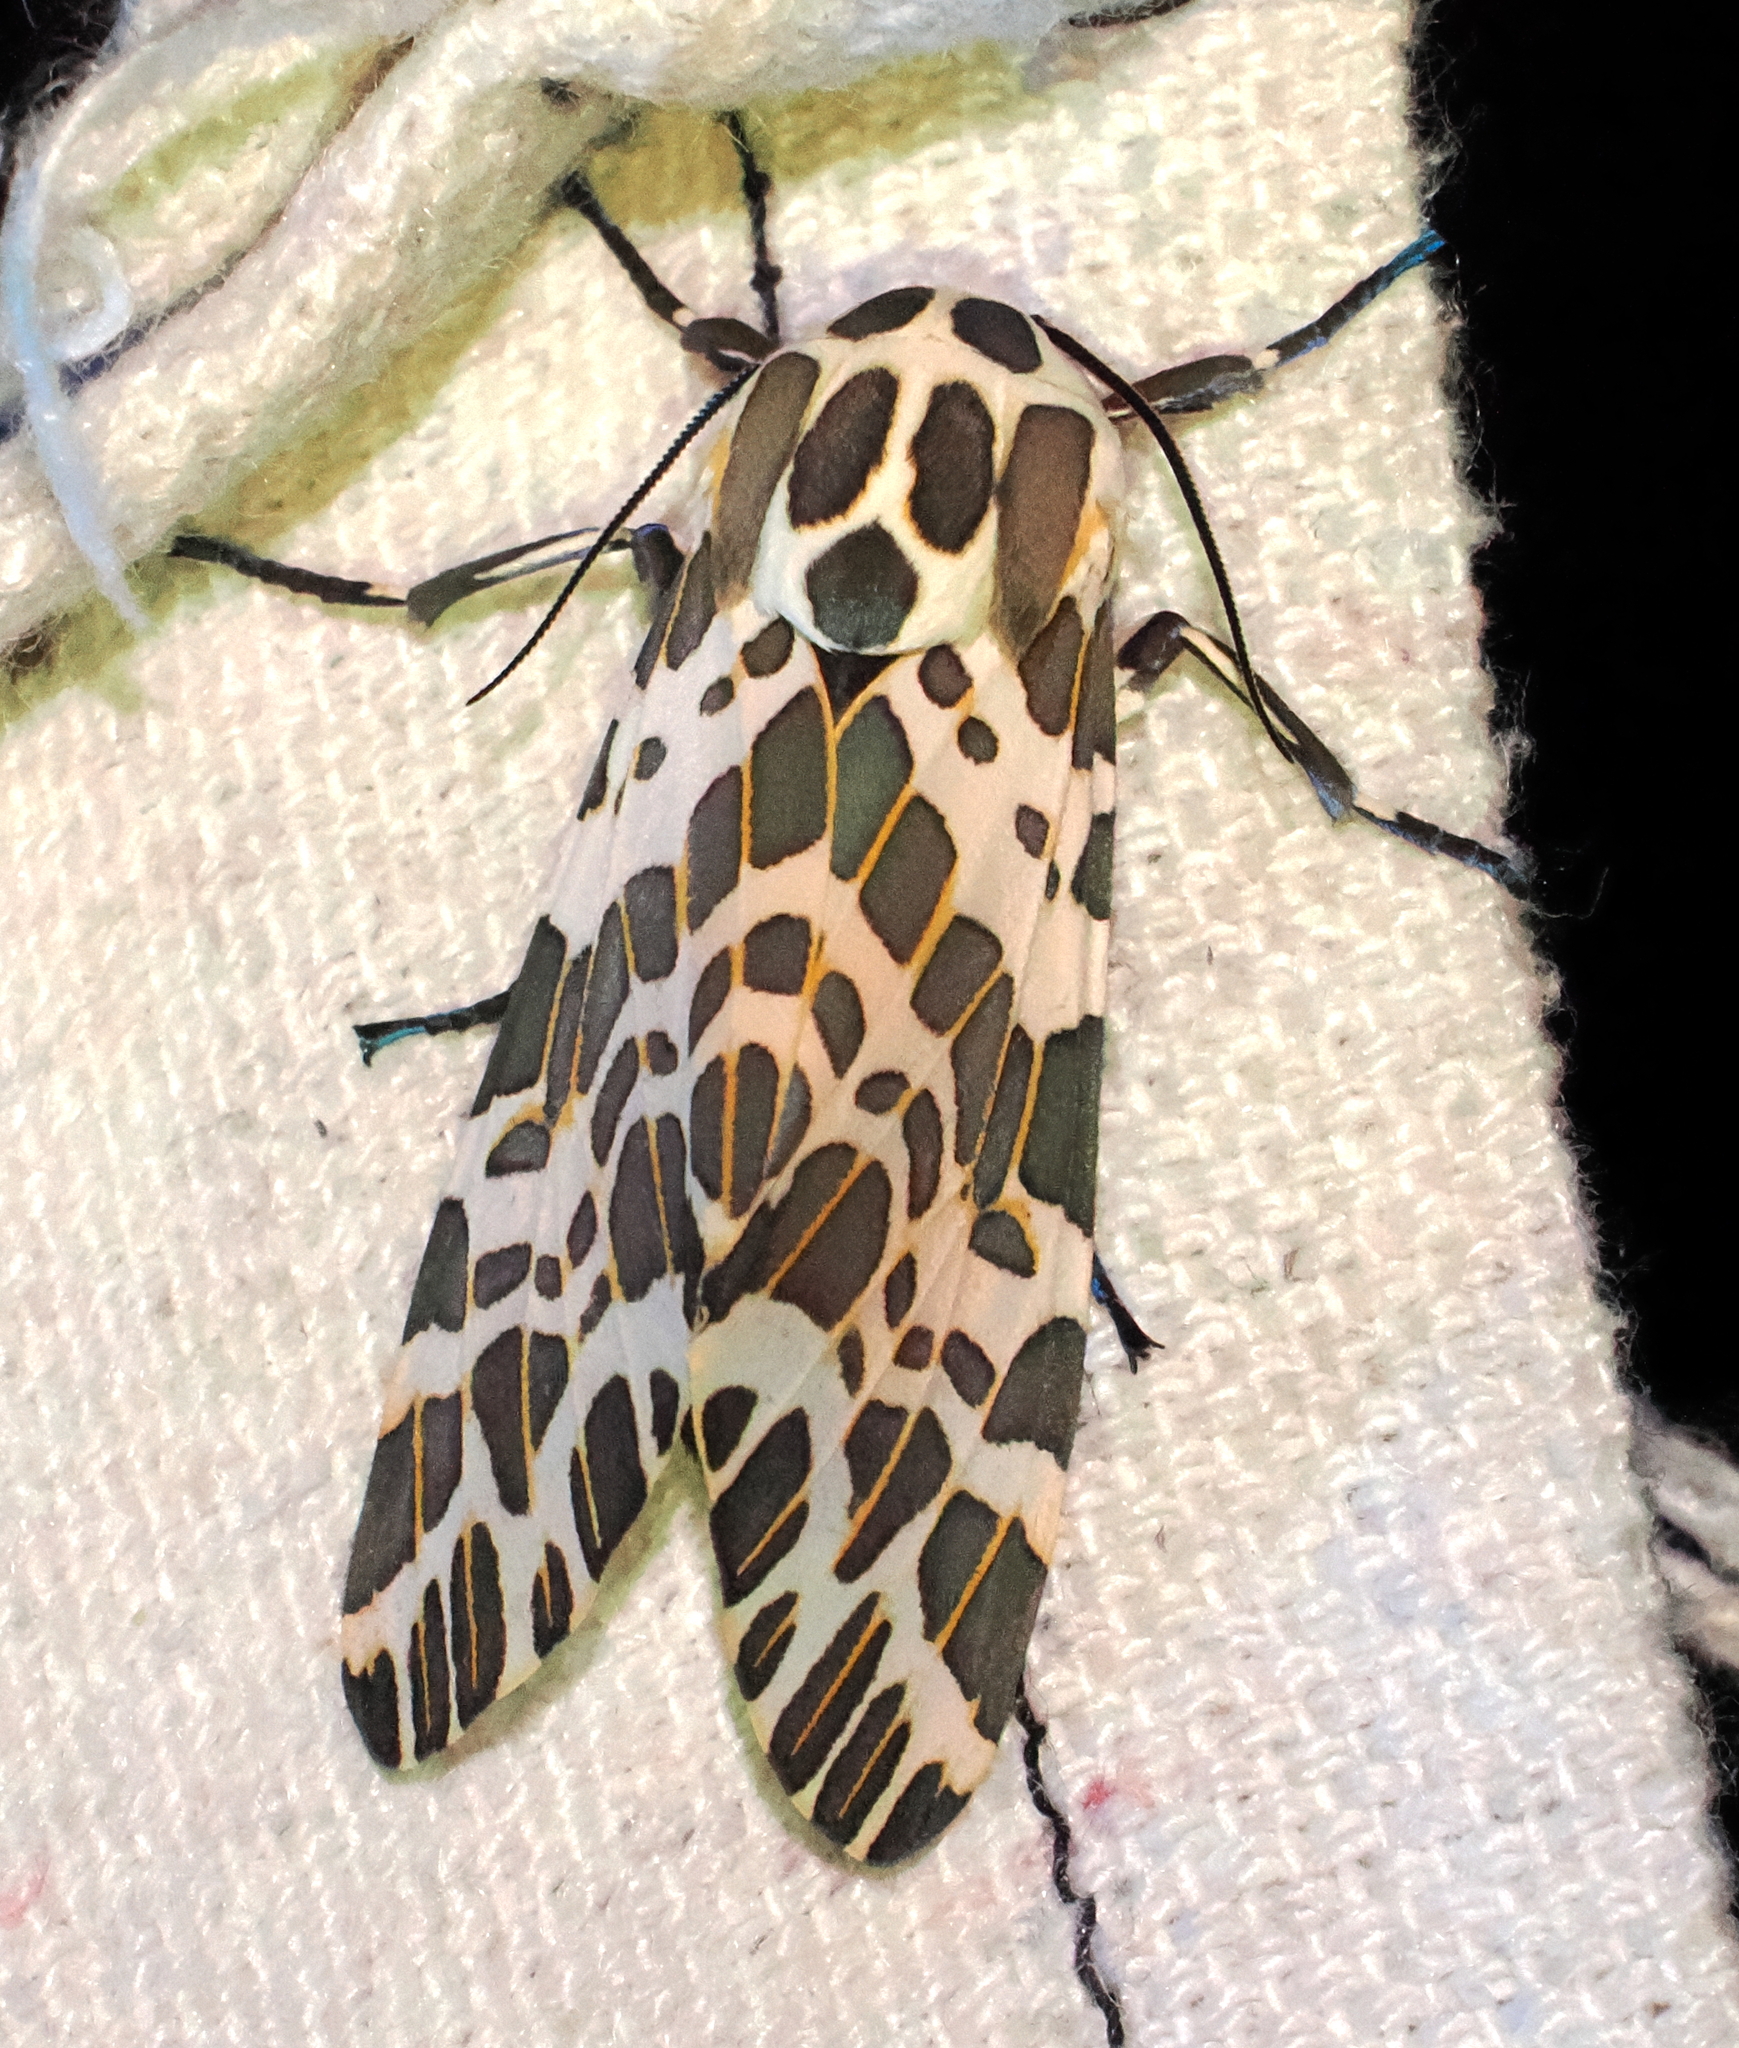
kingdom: Animalia
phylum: Arthropoda
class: Insecta
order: Lepidoptera
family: Erebidae
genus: Hypercompe
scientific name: Hypercompe magdalenae
